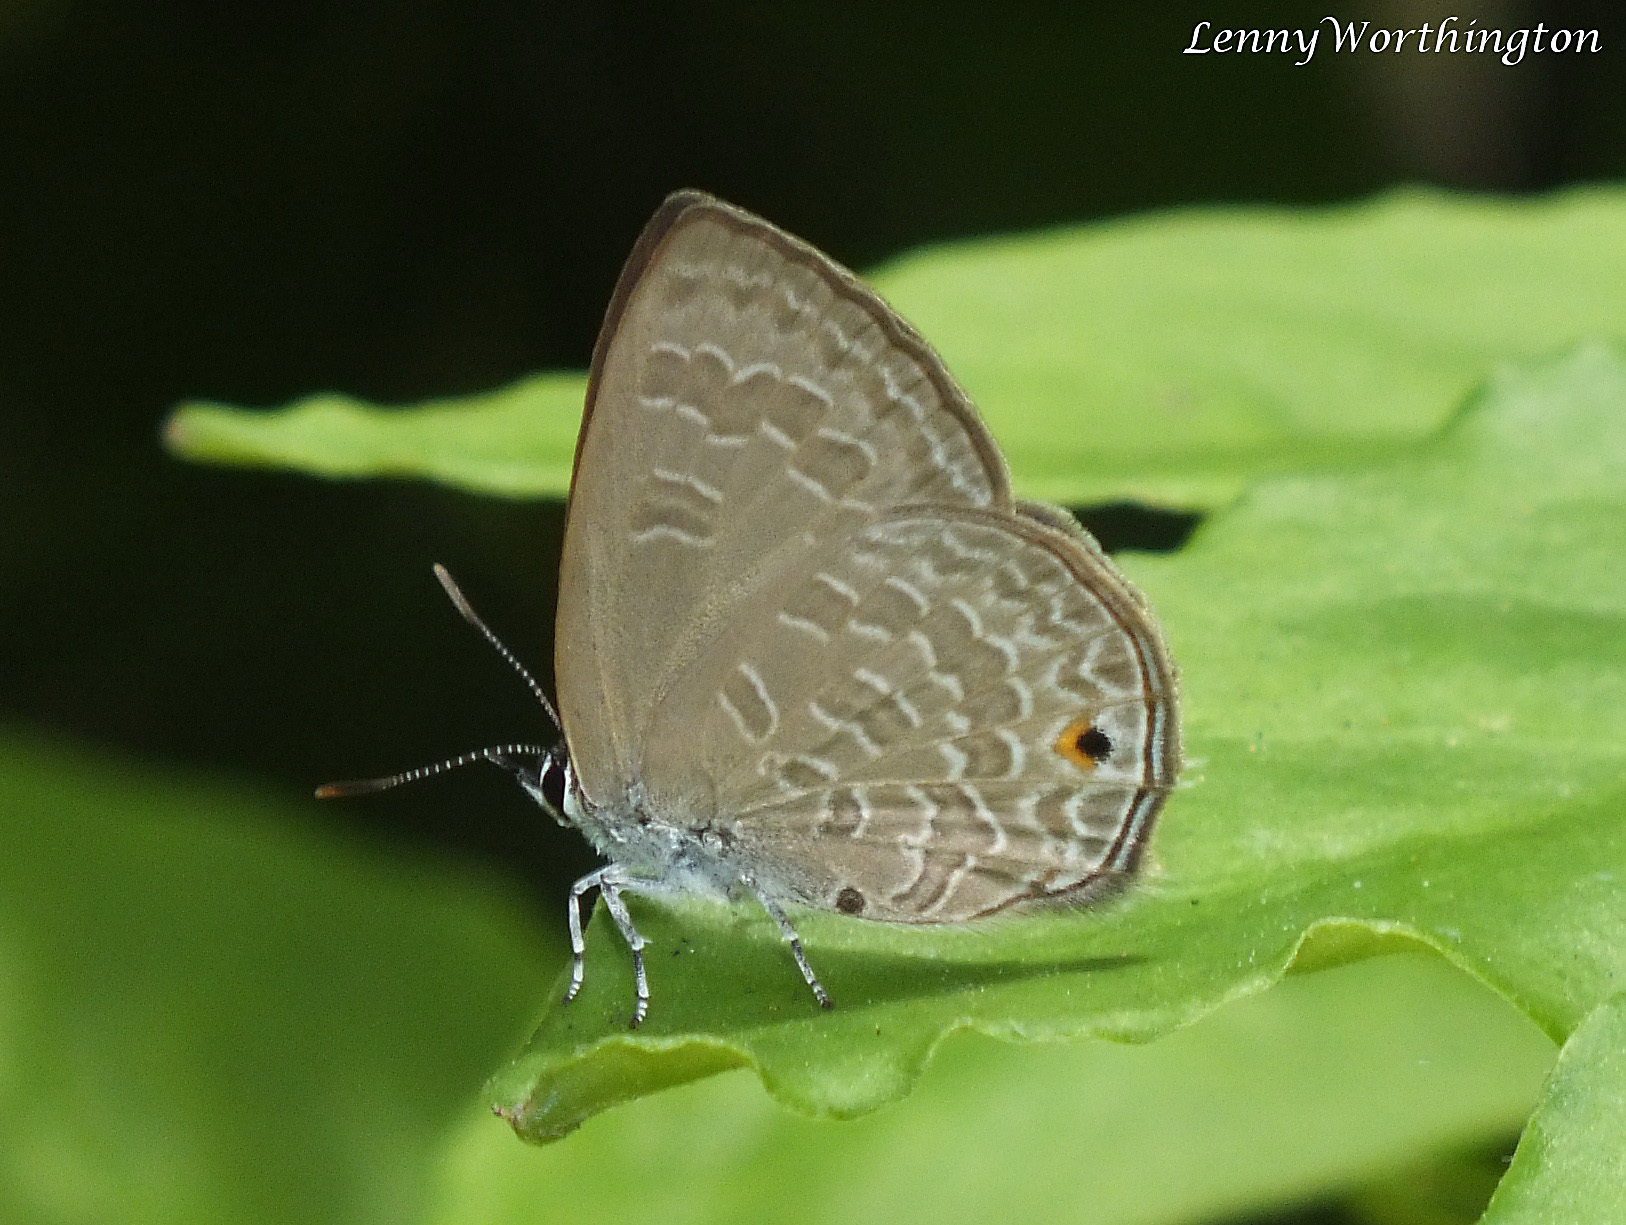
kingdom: Animalia
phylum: Arthropoda
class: Insecta
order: Lepidoptera
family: Lycaenidae
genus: Anthene
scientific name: Anthene emolus
